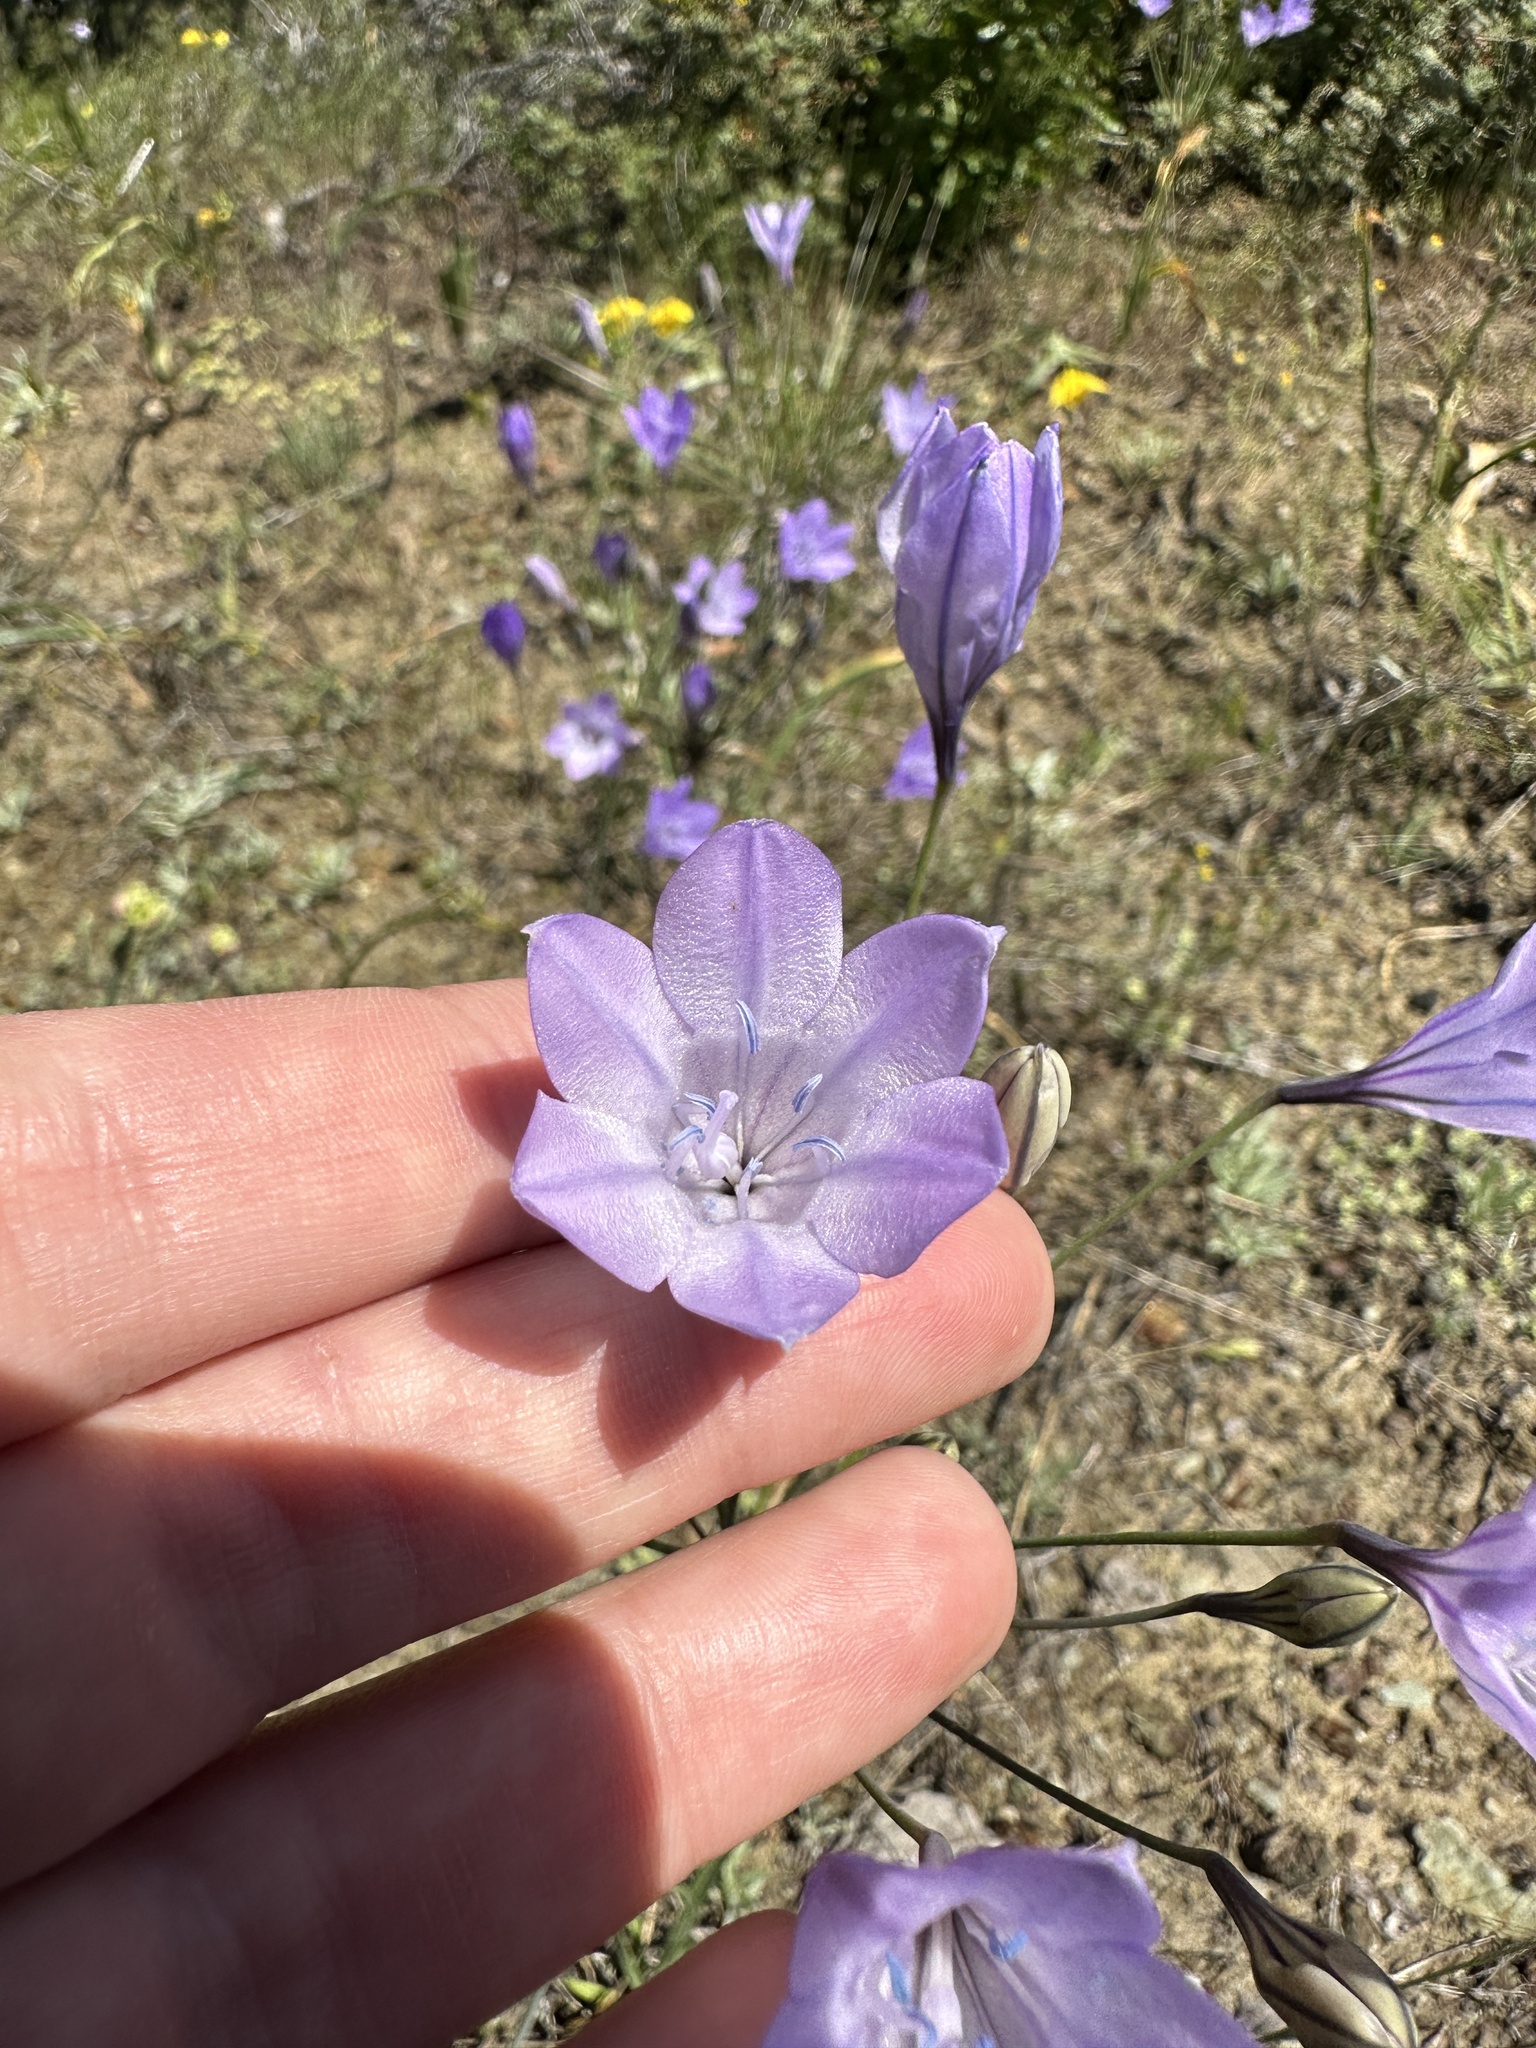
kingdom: Plantae
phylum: Tracheophyta
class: Liliopsida
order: Asparagales
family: Asparagaceae
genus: Triteleia
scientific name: Triteleia laxa
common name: Triplet-lily
